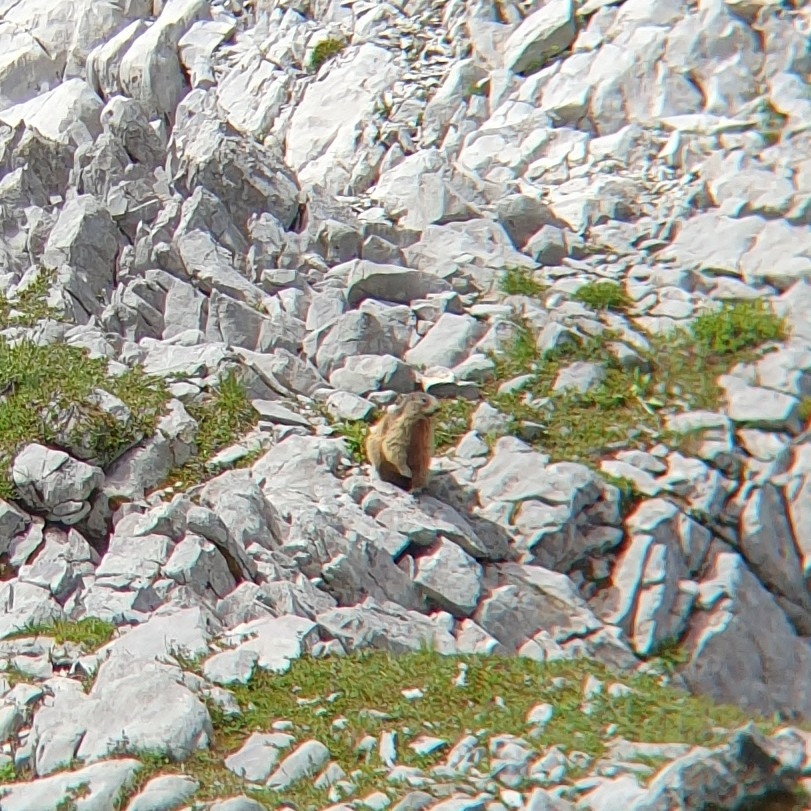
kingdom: Animalia
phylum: Chordata
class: Mammalia
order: Rodentia
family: Sciuridae
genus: Marmota
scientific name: Marmota marmota
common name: Alpine marmot
